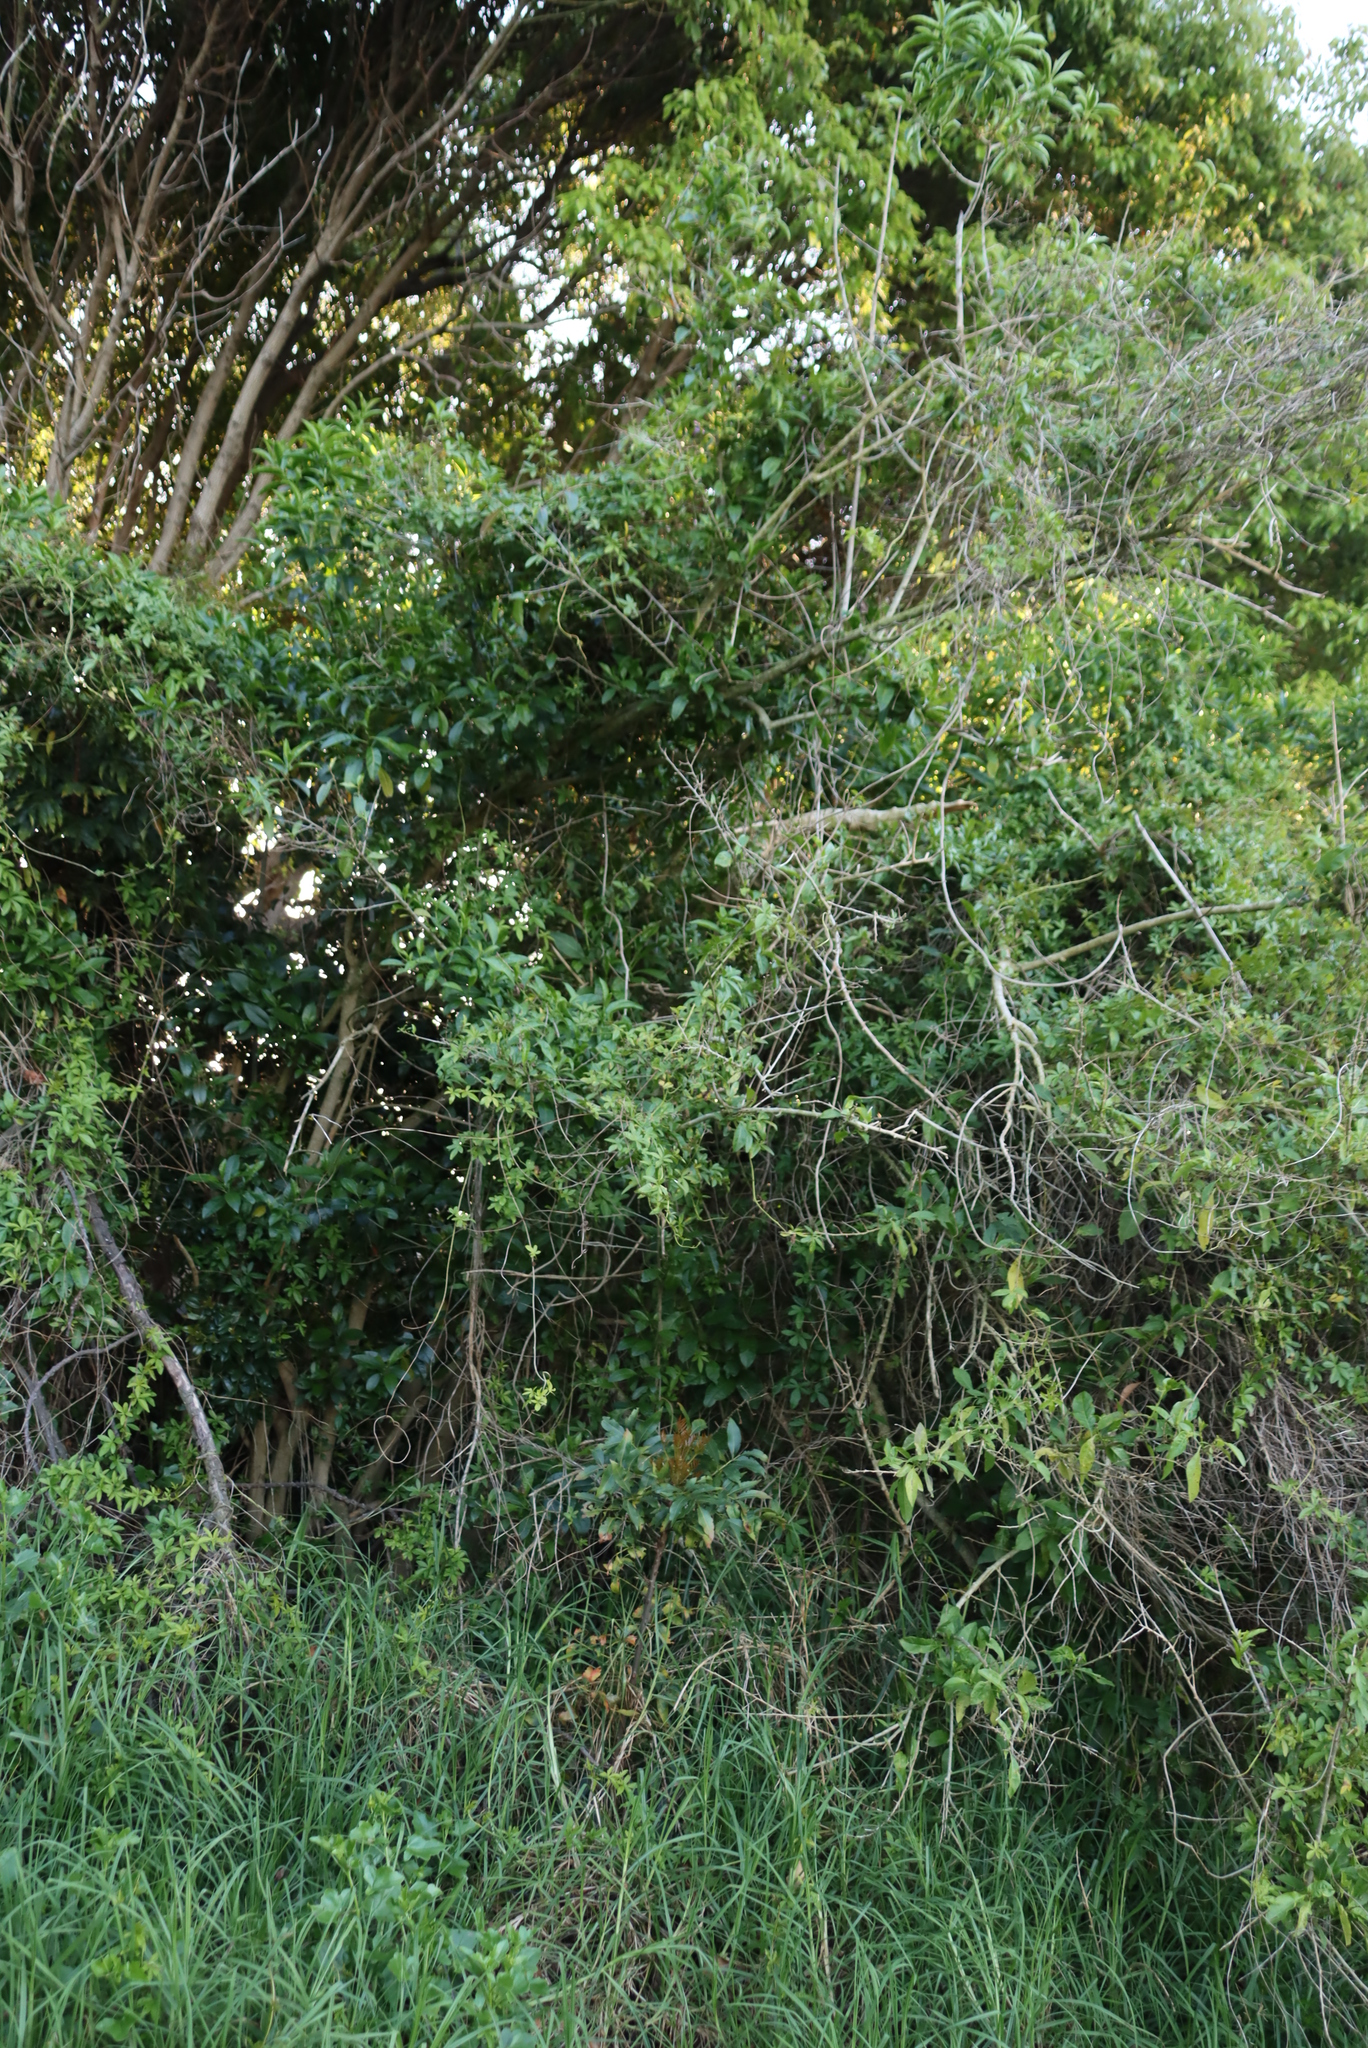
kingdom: Plantae
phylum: Tracheophyta
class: Magnoliopsida
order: Solanales
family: Solanaceae
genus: Cestrum
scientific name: Cestrum laevigatum
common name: Inkberry
